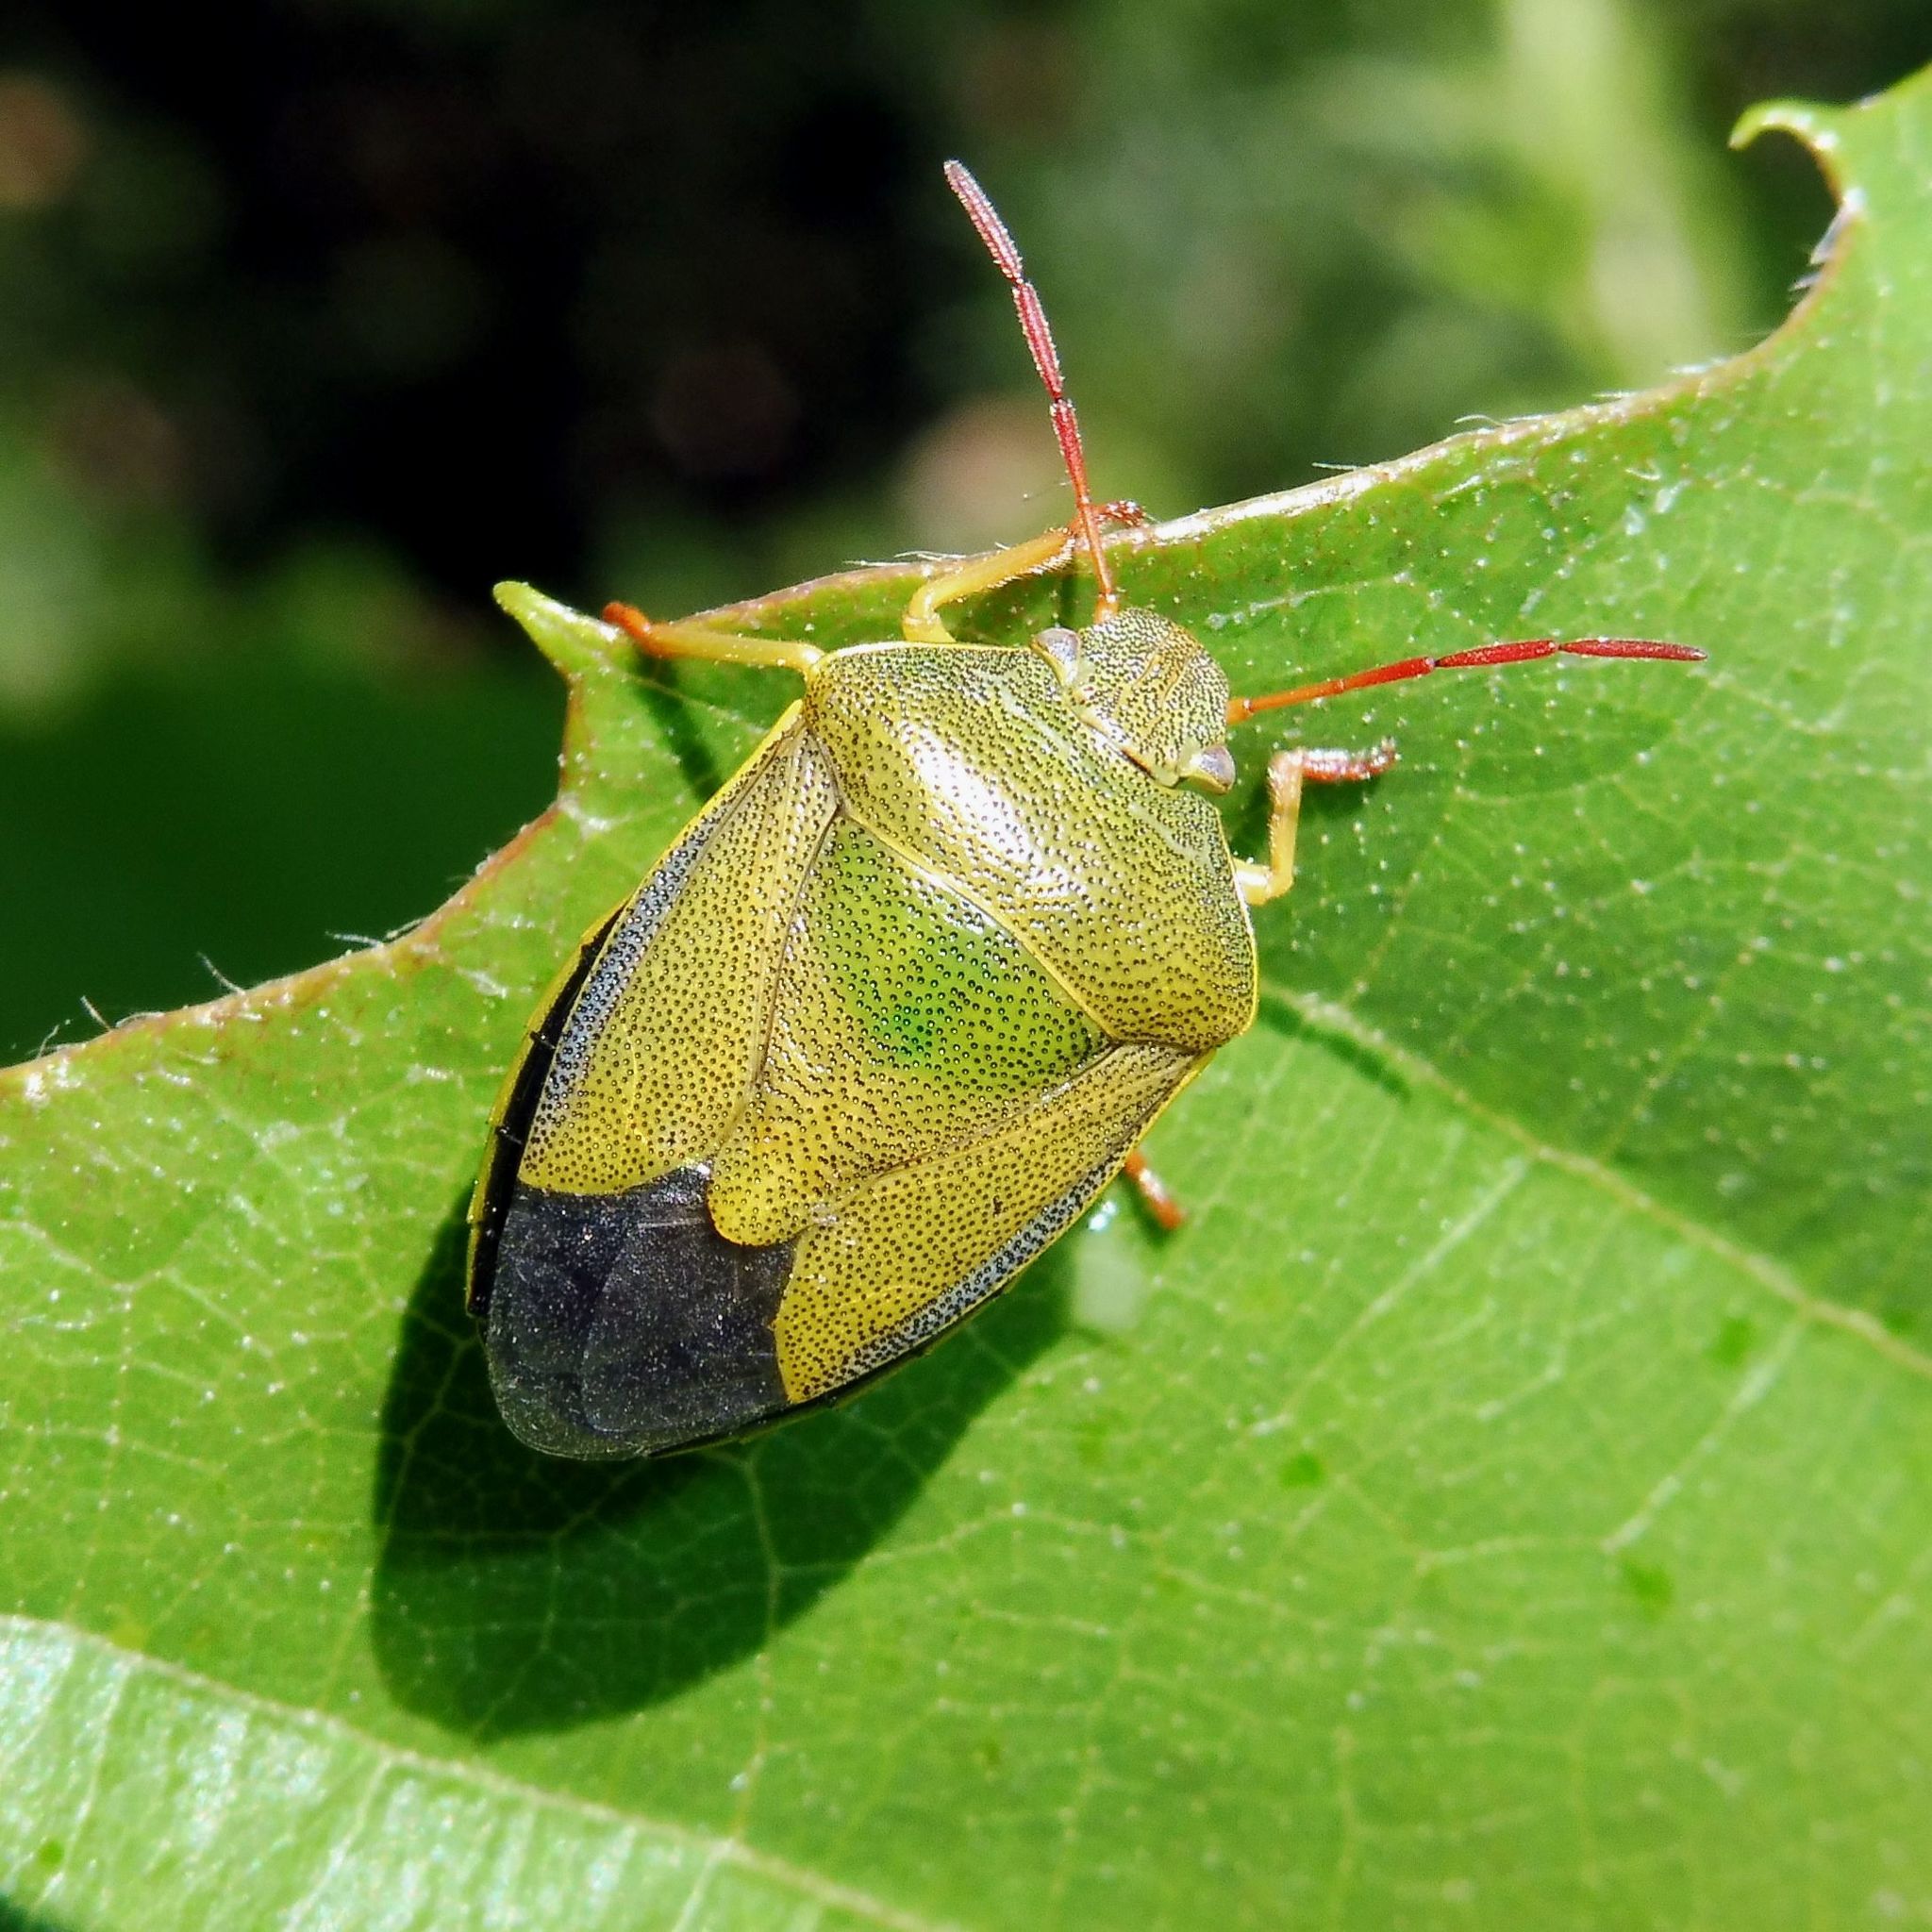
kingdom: Animalia
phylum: Arthropoda
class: Insecta
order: Hemiptera
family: Pentatomidae
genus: Piezodorus
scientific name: Piezodorus lituratus
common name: Stink bug
